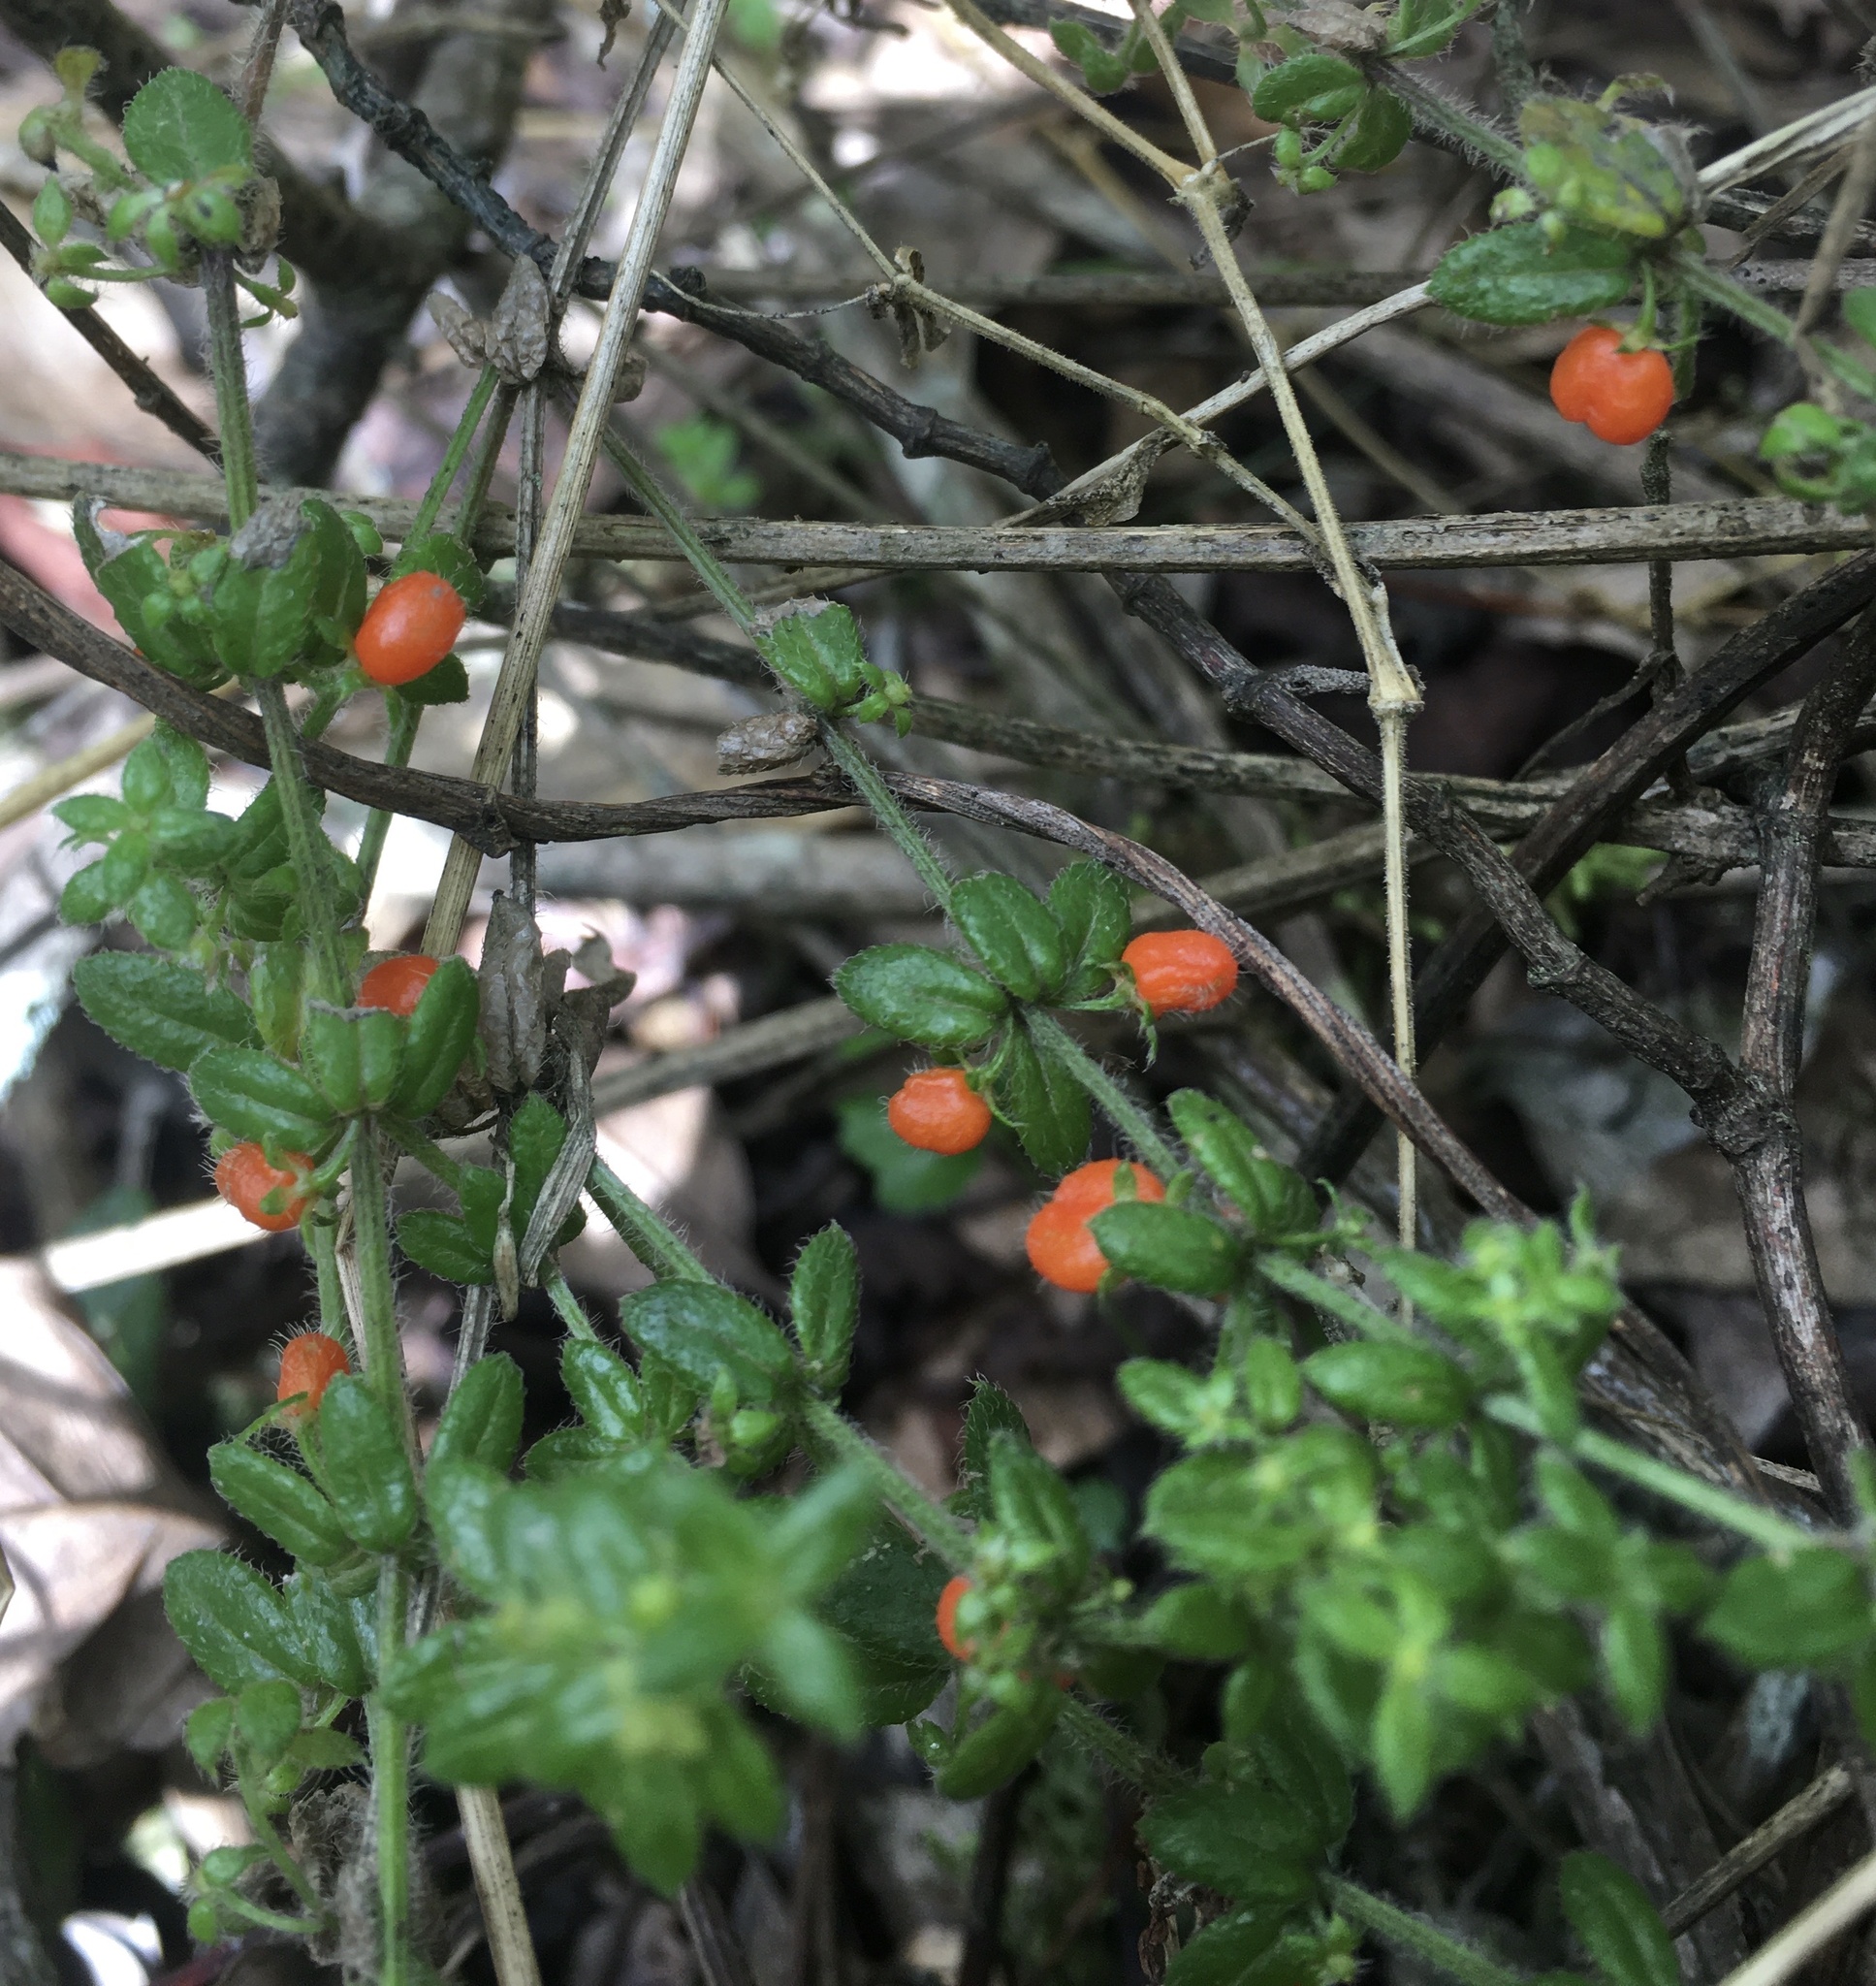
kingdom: Plantae
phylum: Tracheophyta
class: Magnoliopsida
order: Gentianales
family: Rubiaceae
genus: Galium
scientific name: Galium hypocarpium
